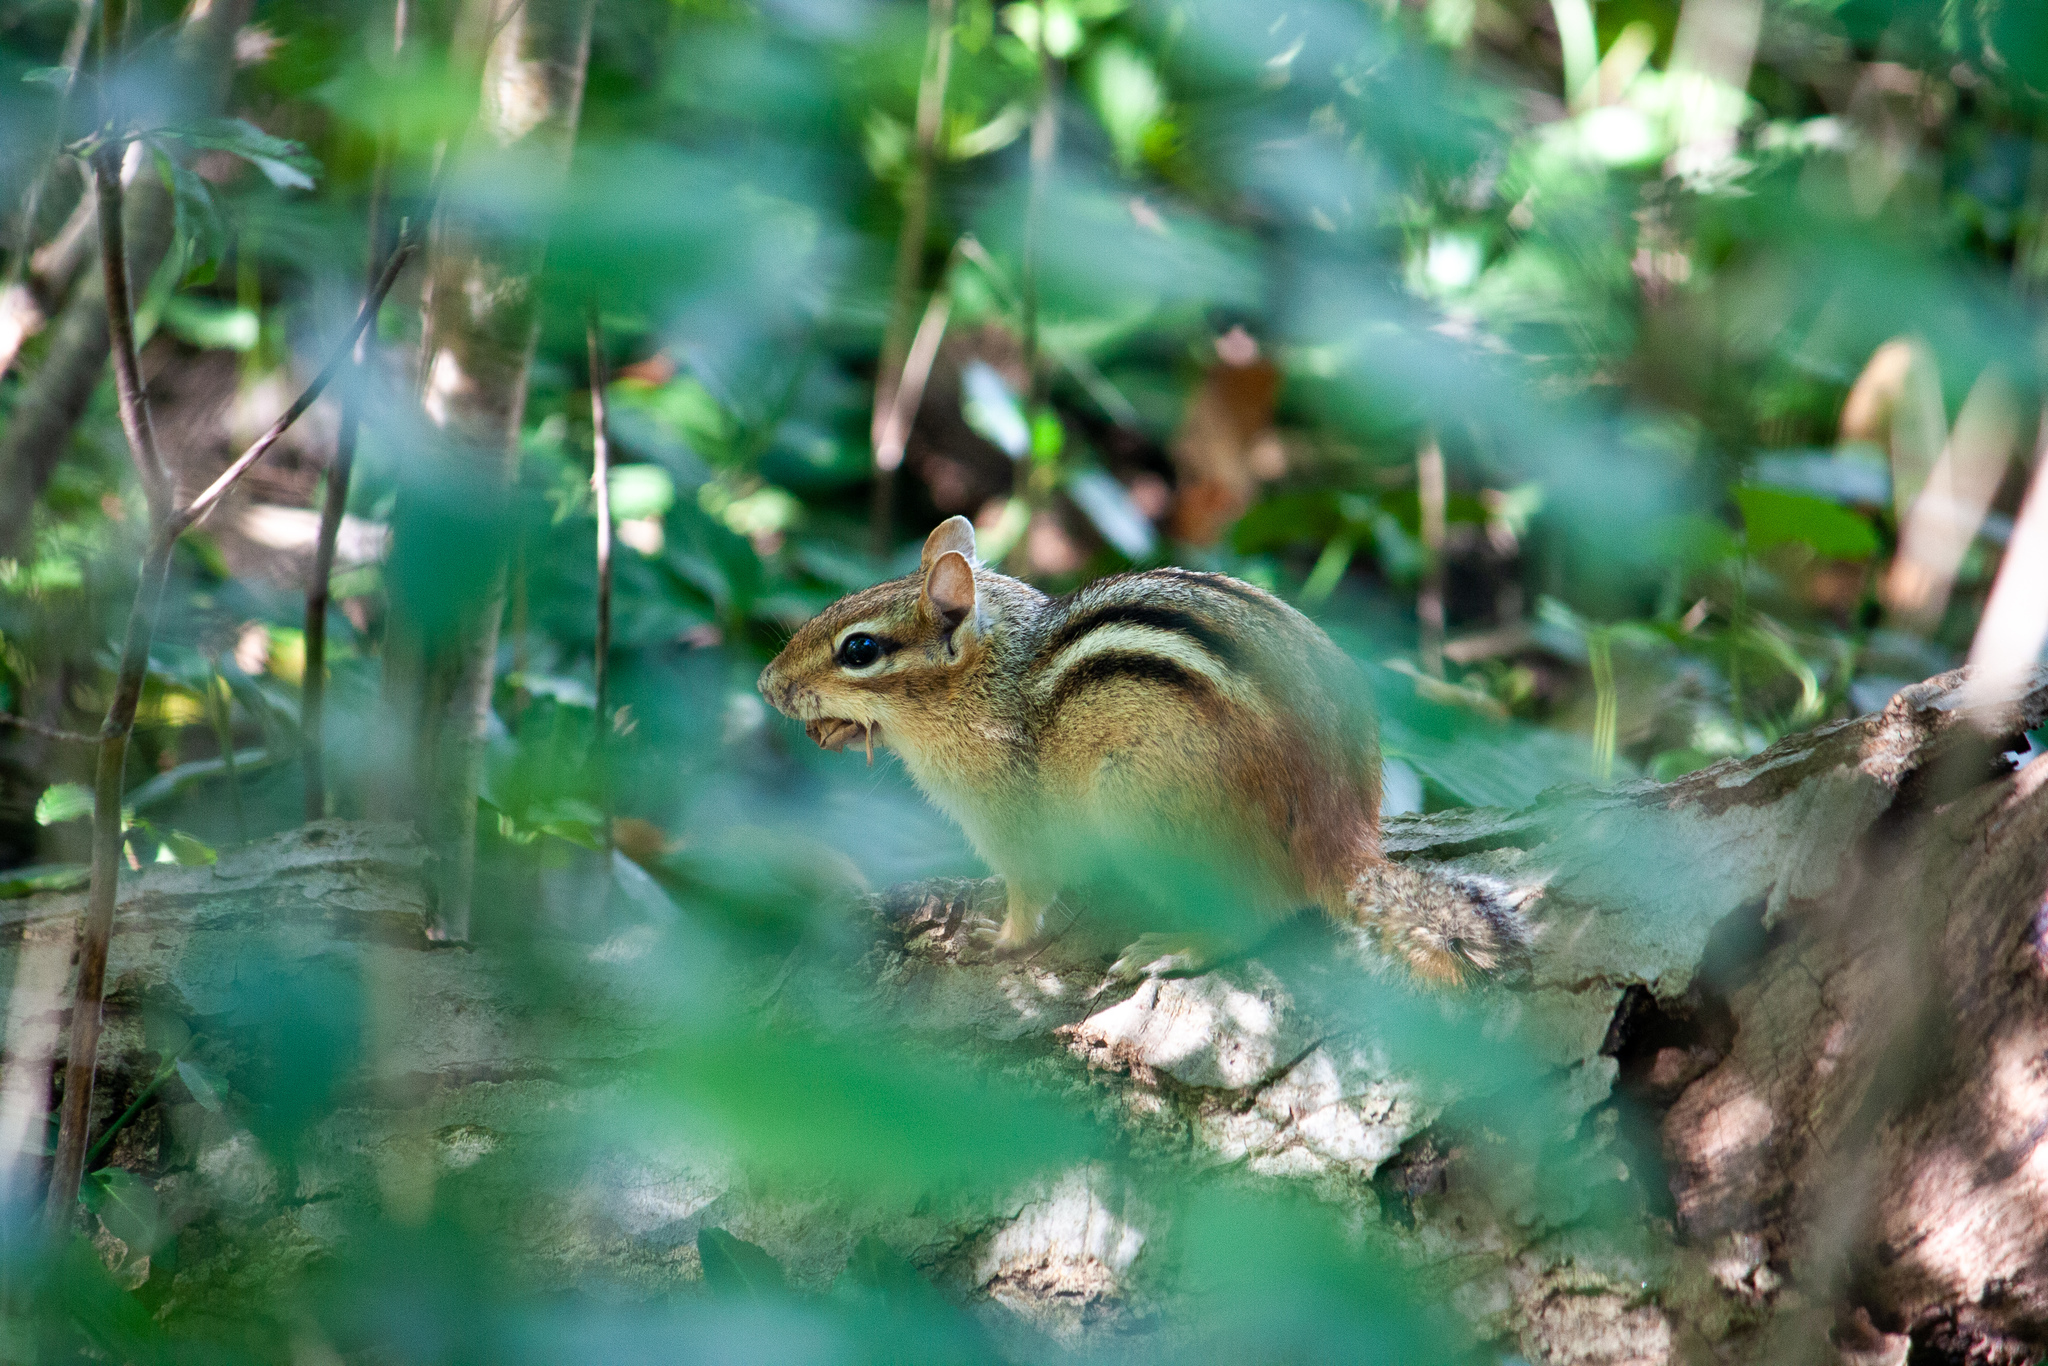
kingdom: Animalia
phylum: Chordata
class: Mammalia
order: Rodentia
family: Sciuridae
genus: Tamias
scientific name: Tamias striatus
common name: Eastern chipmunk
